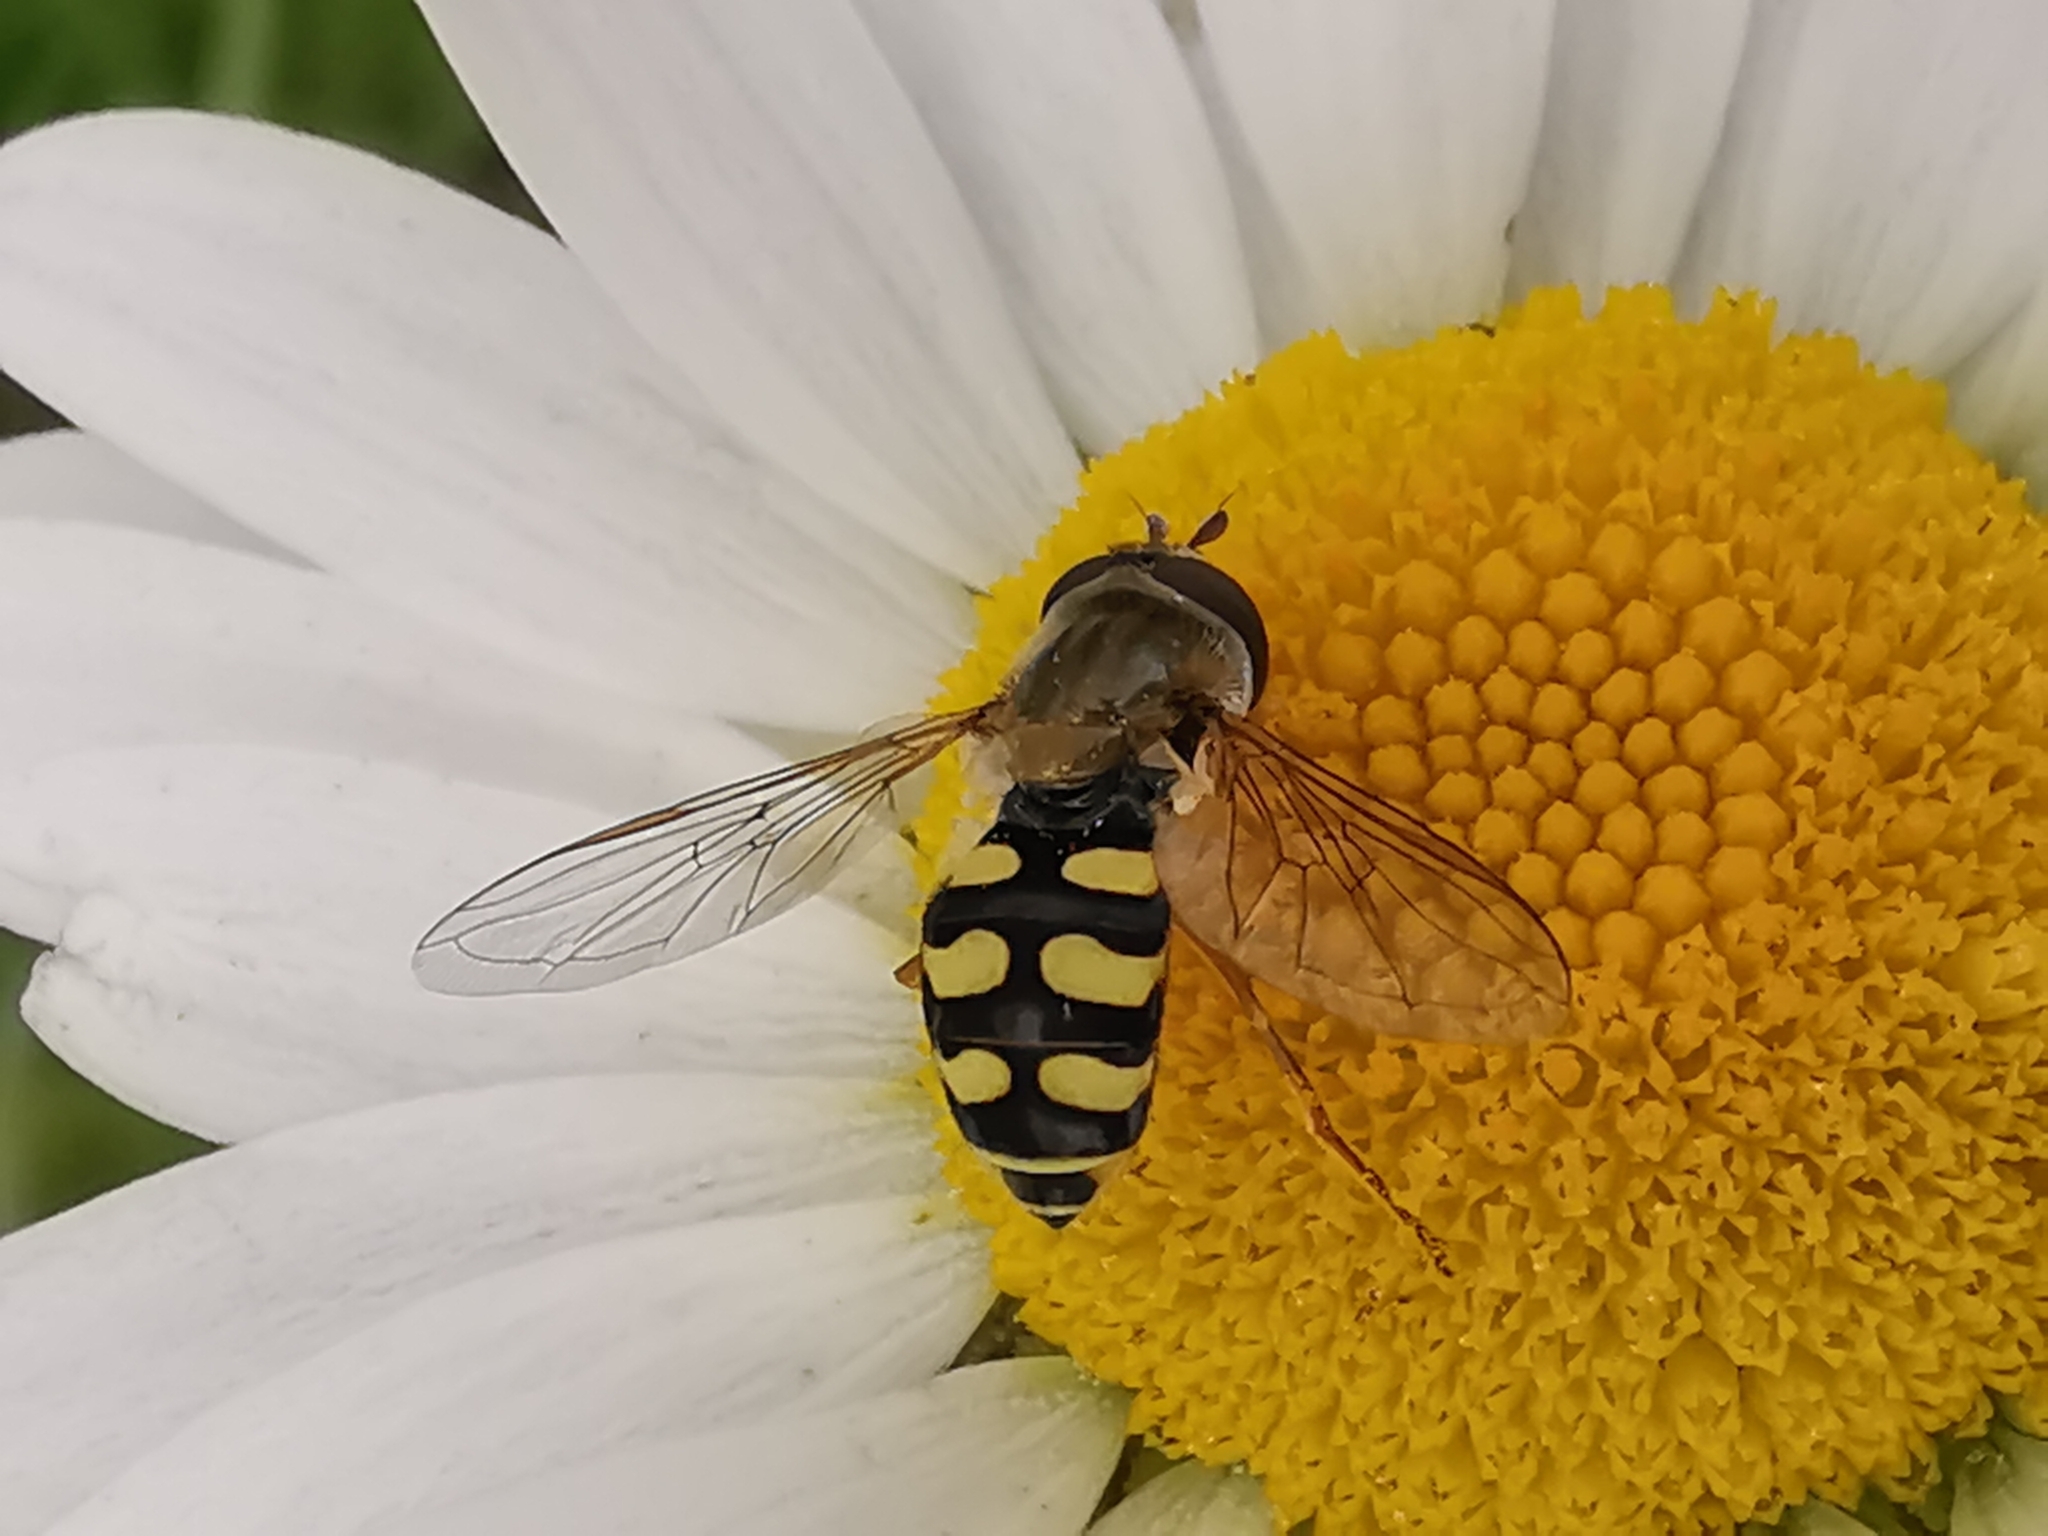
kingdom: Animalia
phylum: Arthropoda
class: Insecta
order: Diptera
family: Syrphidae
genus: Eupeodes
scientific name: Eupeodes corollae
